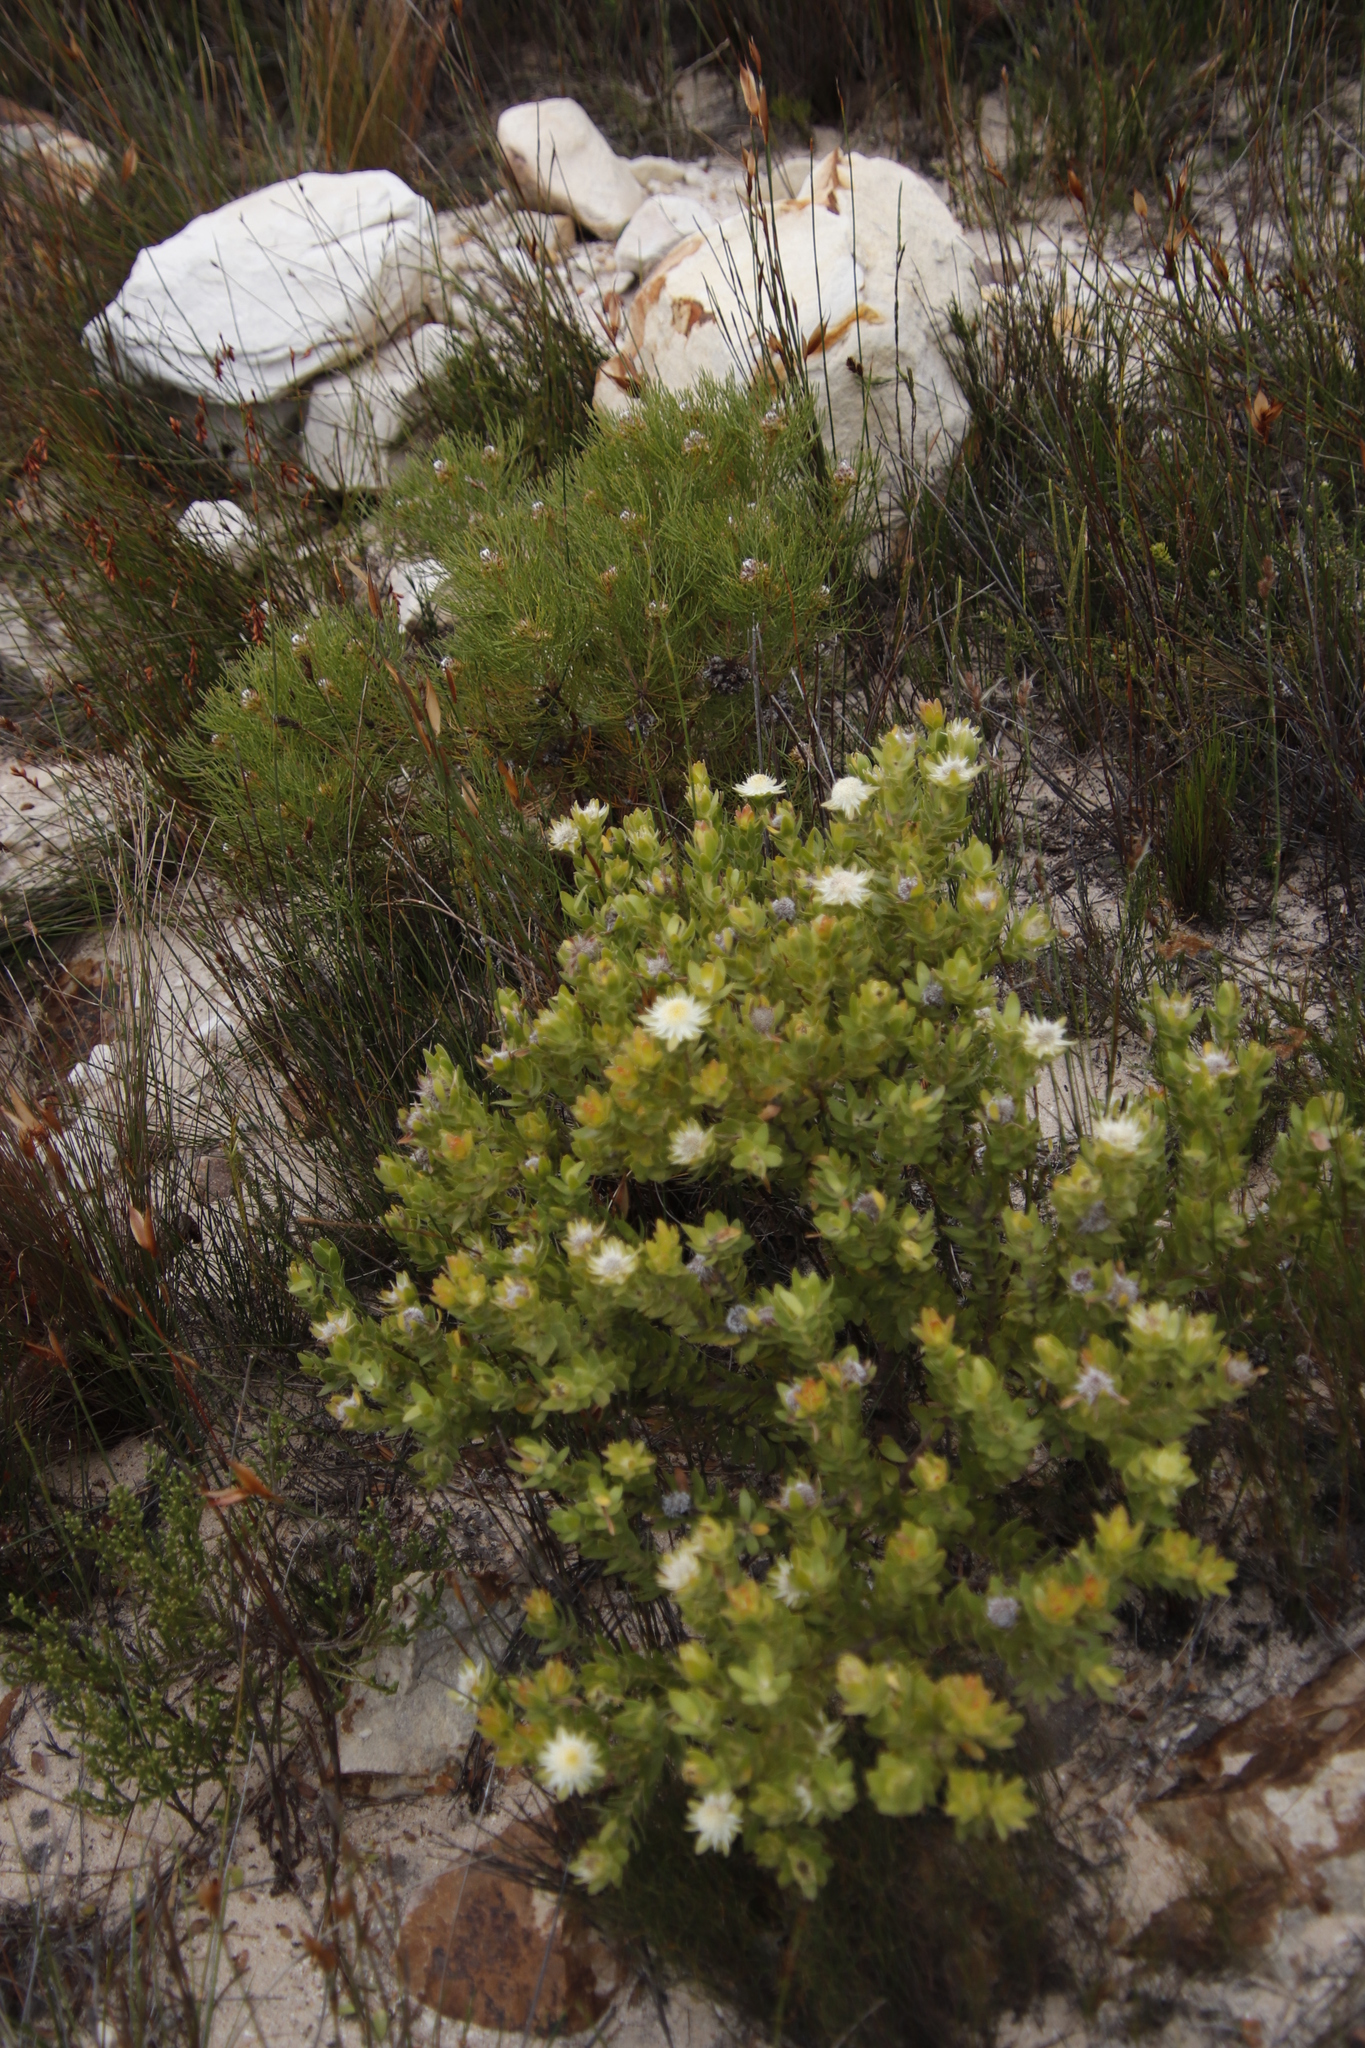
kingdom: Plantae
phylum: Tracheophyta
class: Magnoliopsida
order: Proteales
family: Proteaceae
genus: Diastella
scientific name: Diastella thymelaeoides
